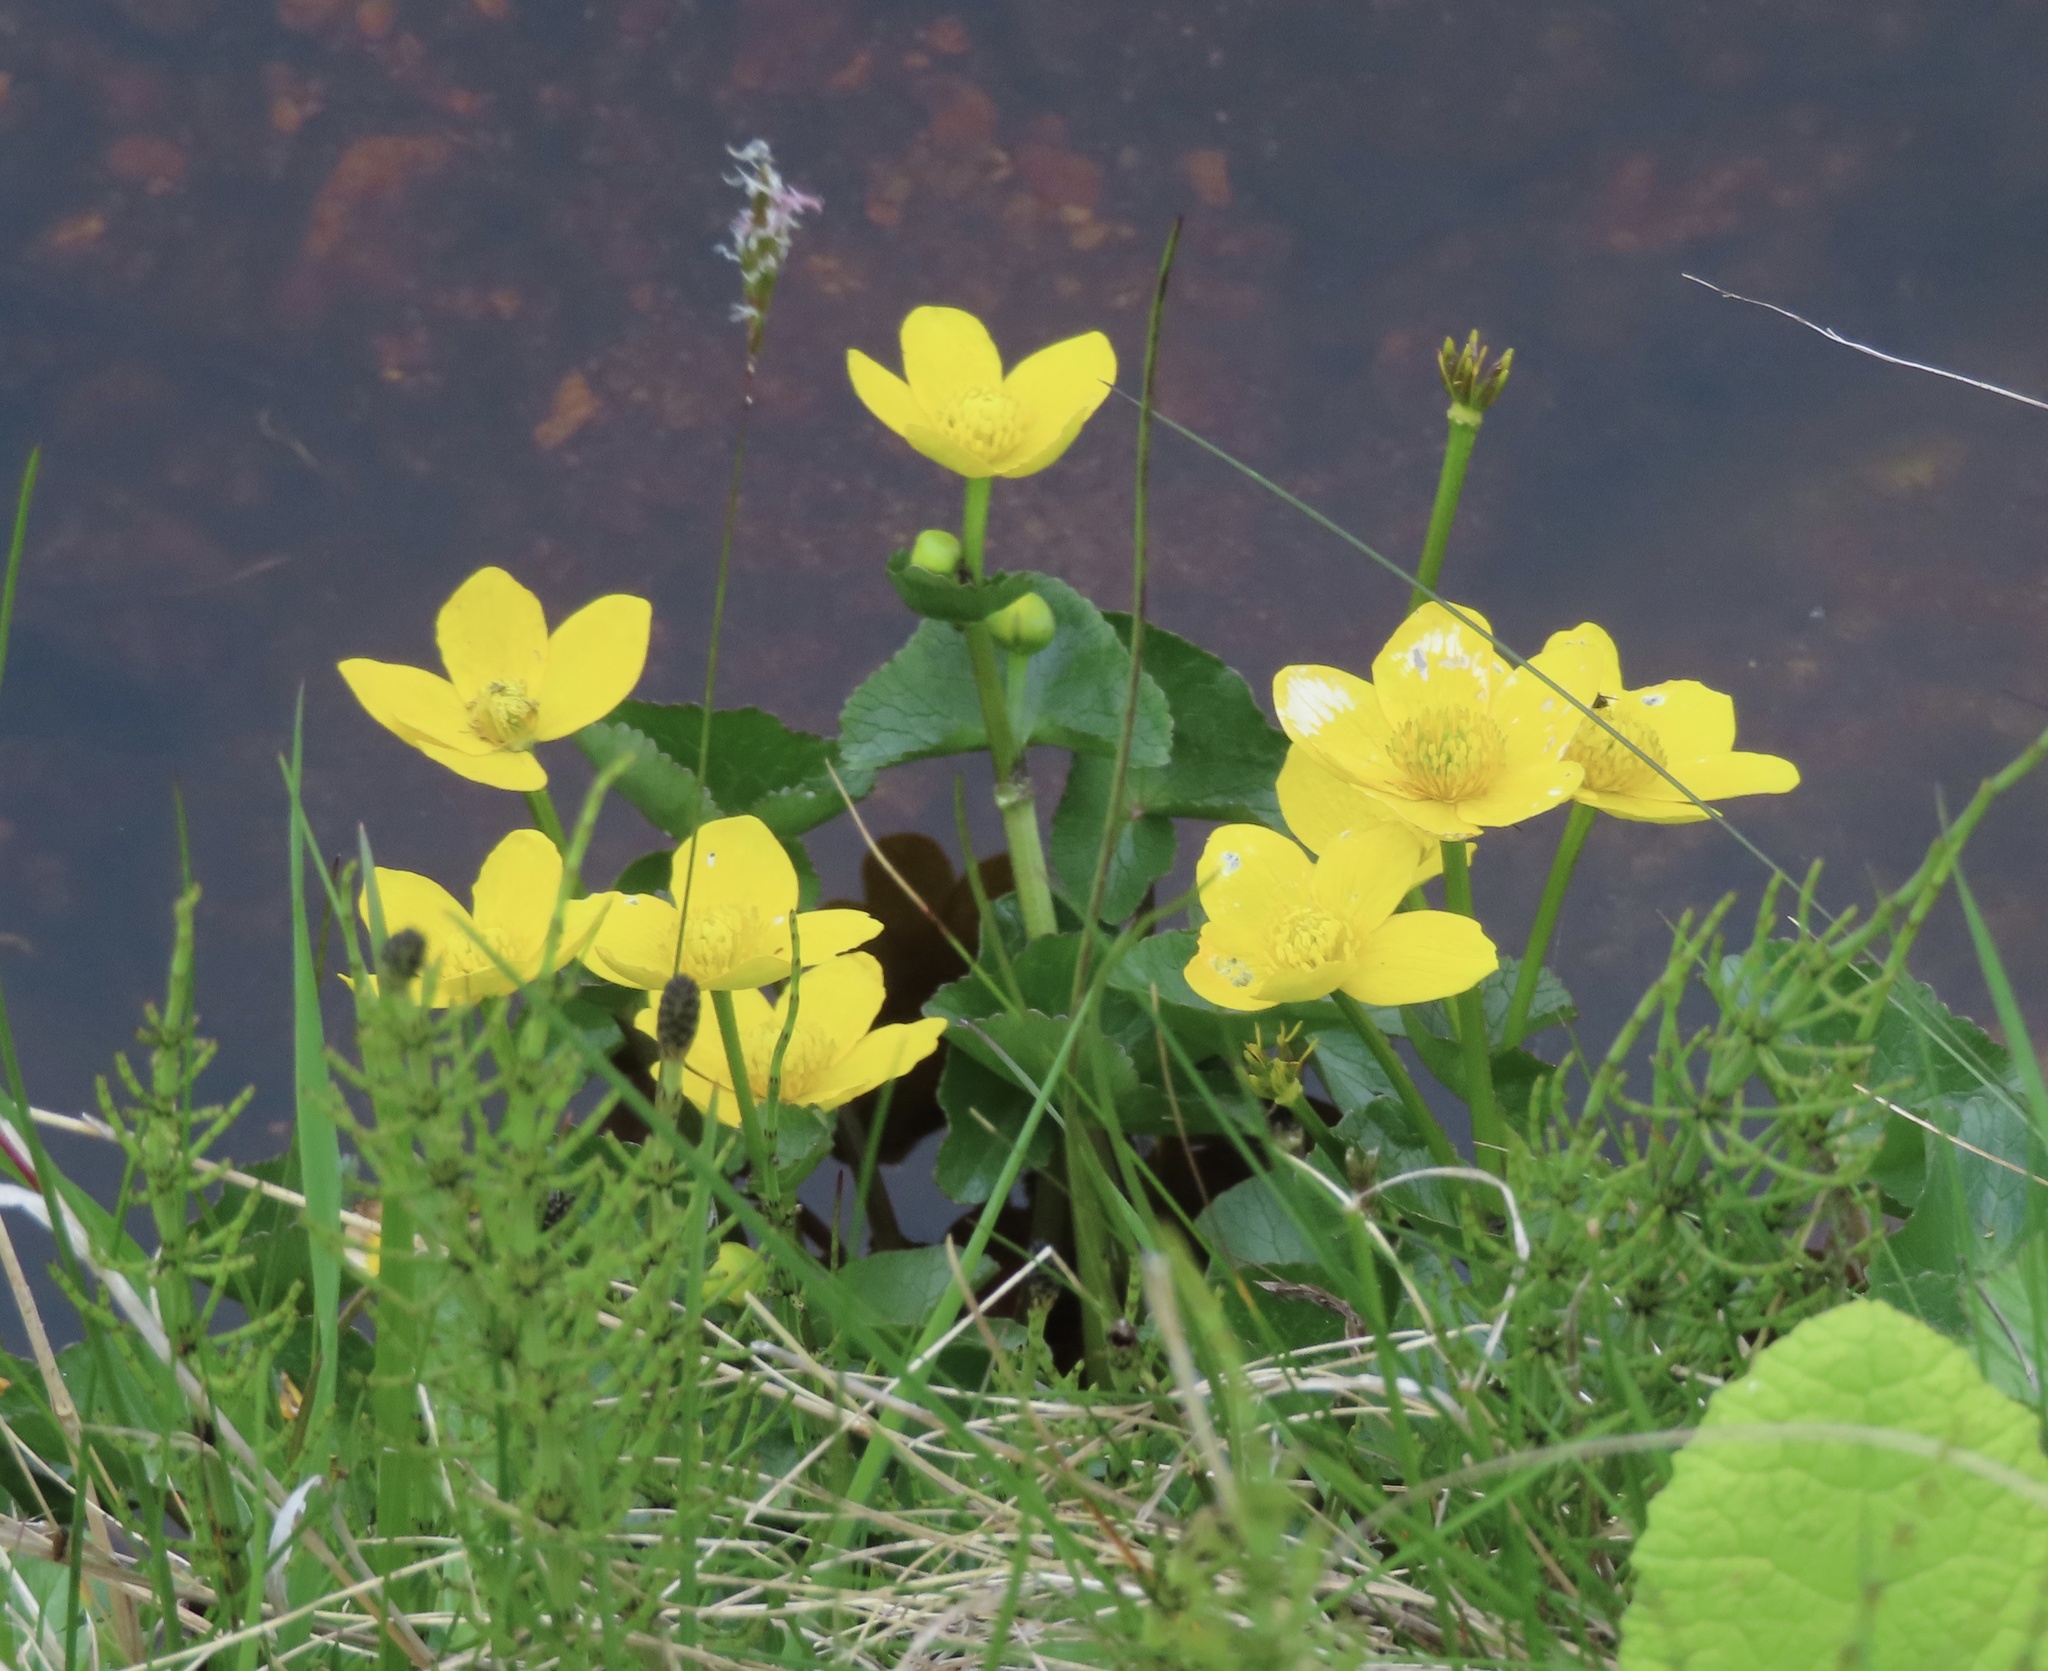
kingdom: Plantae
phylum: Tracheophyta
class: Magnoliopsida
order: Ranunculales
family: Ranunculaceae
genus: Caltha
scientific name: Caltha palustris
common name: Marsh marigold
